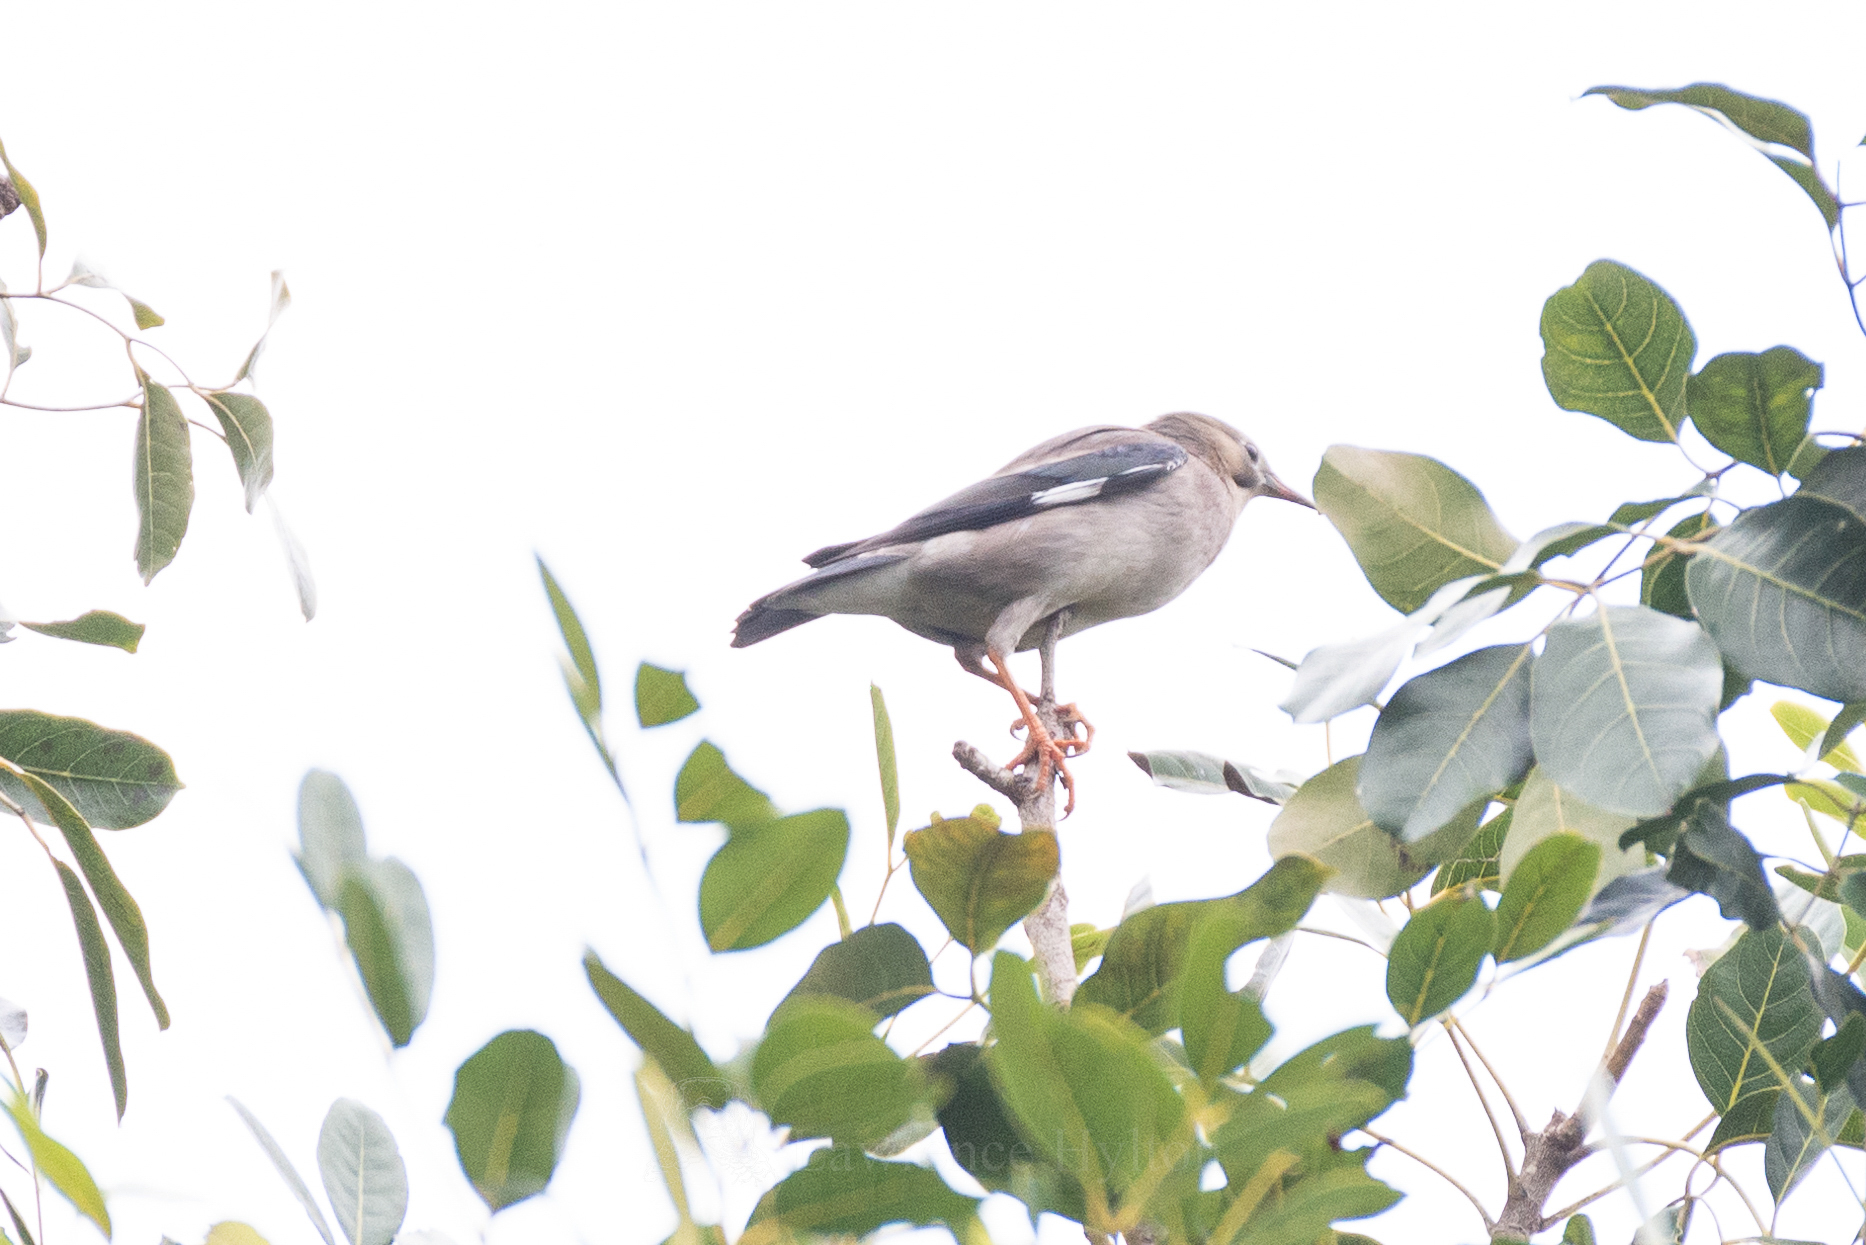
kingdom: Animalia
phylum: Chordata
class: Aves
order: Passeriformes
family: Sturnidae
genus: Spodiopsar
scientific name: Spodiopsar sericeus
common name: Red-billed starling
